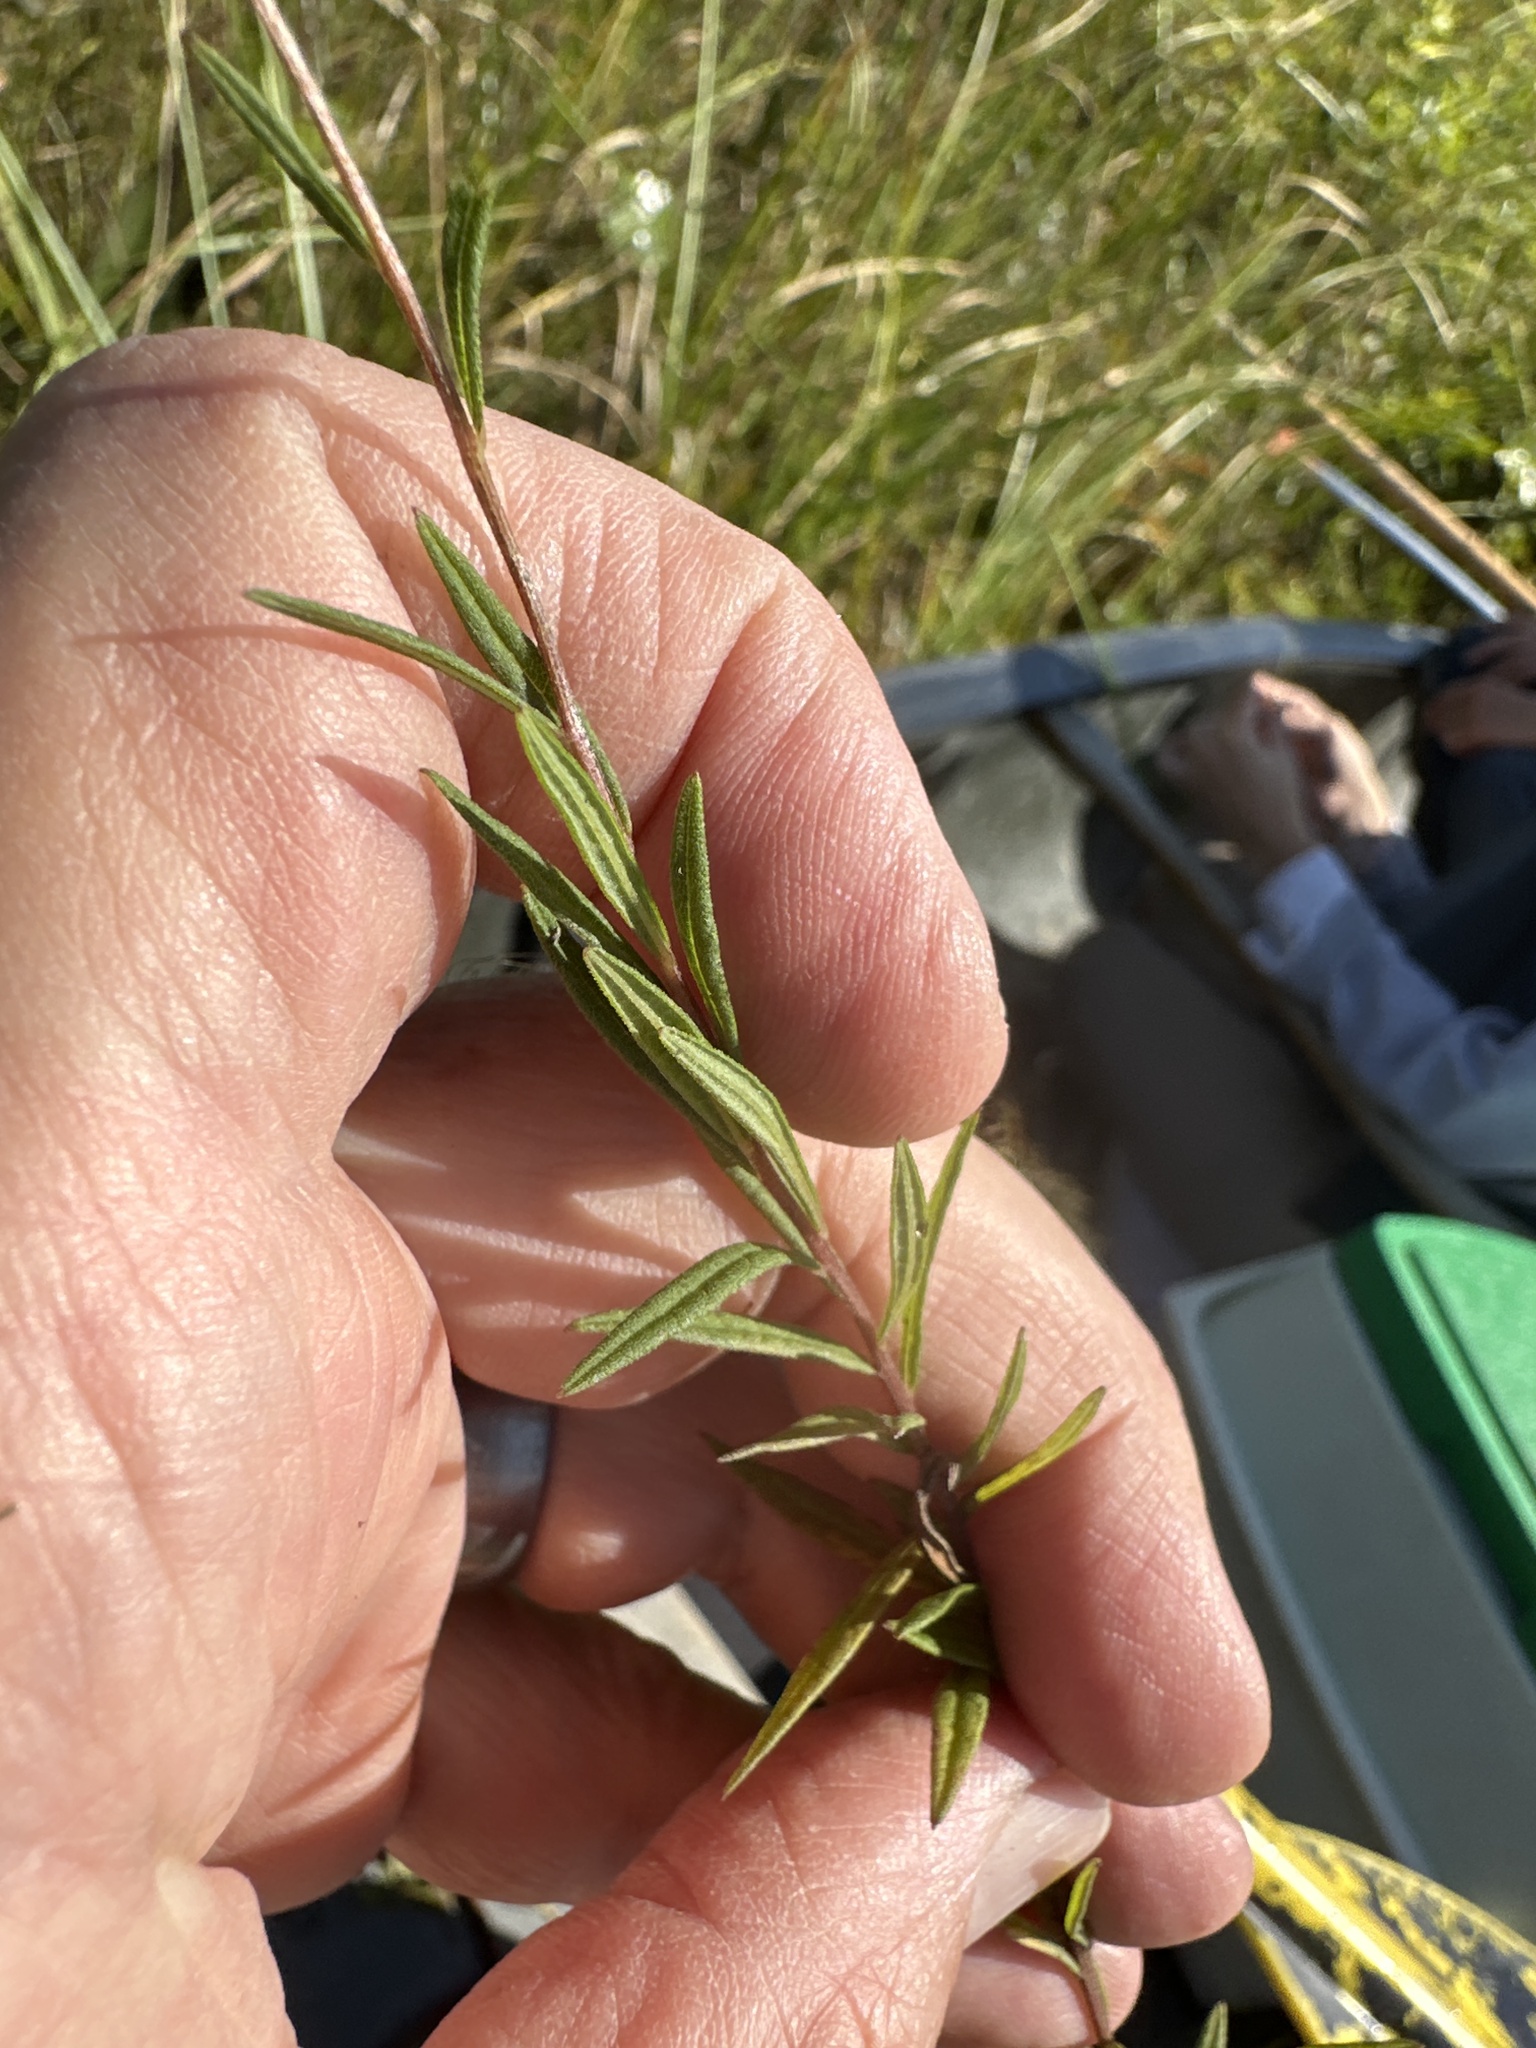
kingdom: Plantae
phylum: Tracheophyta
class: Magnoliopsida
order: Asterales
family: Asteraceae
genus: Oclemena
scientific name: Oclemena nemoralis
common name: Bog aster
